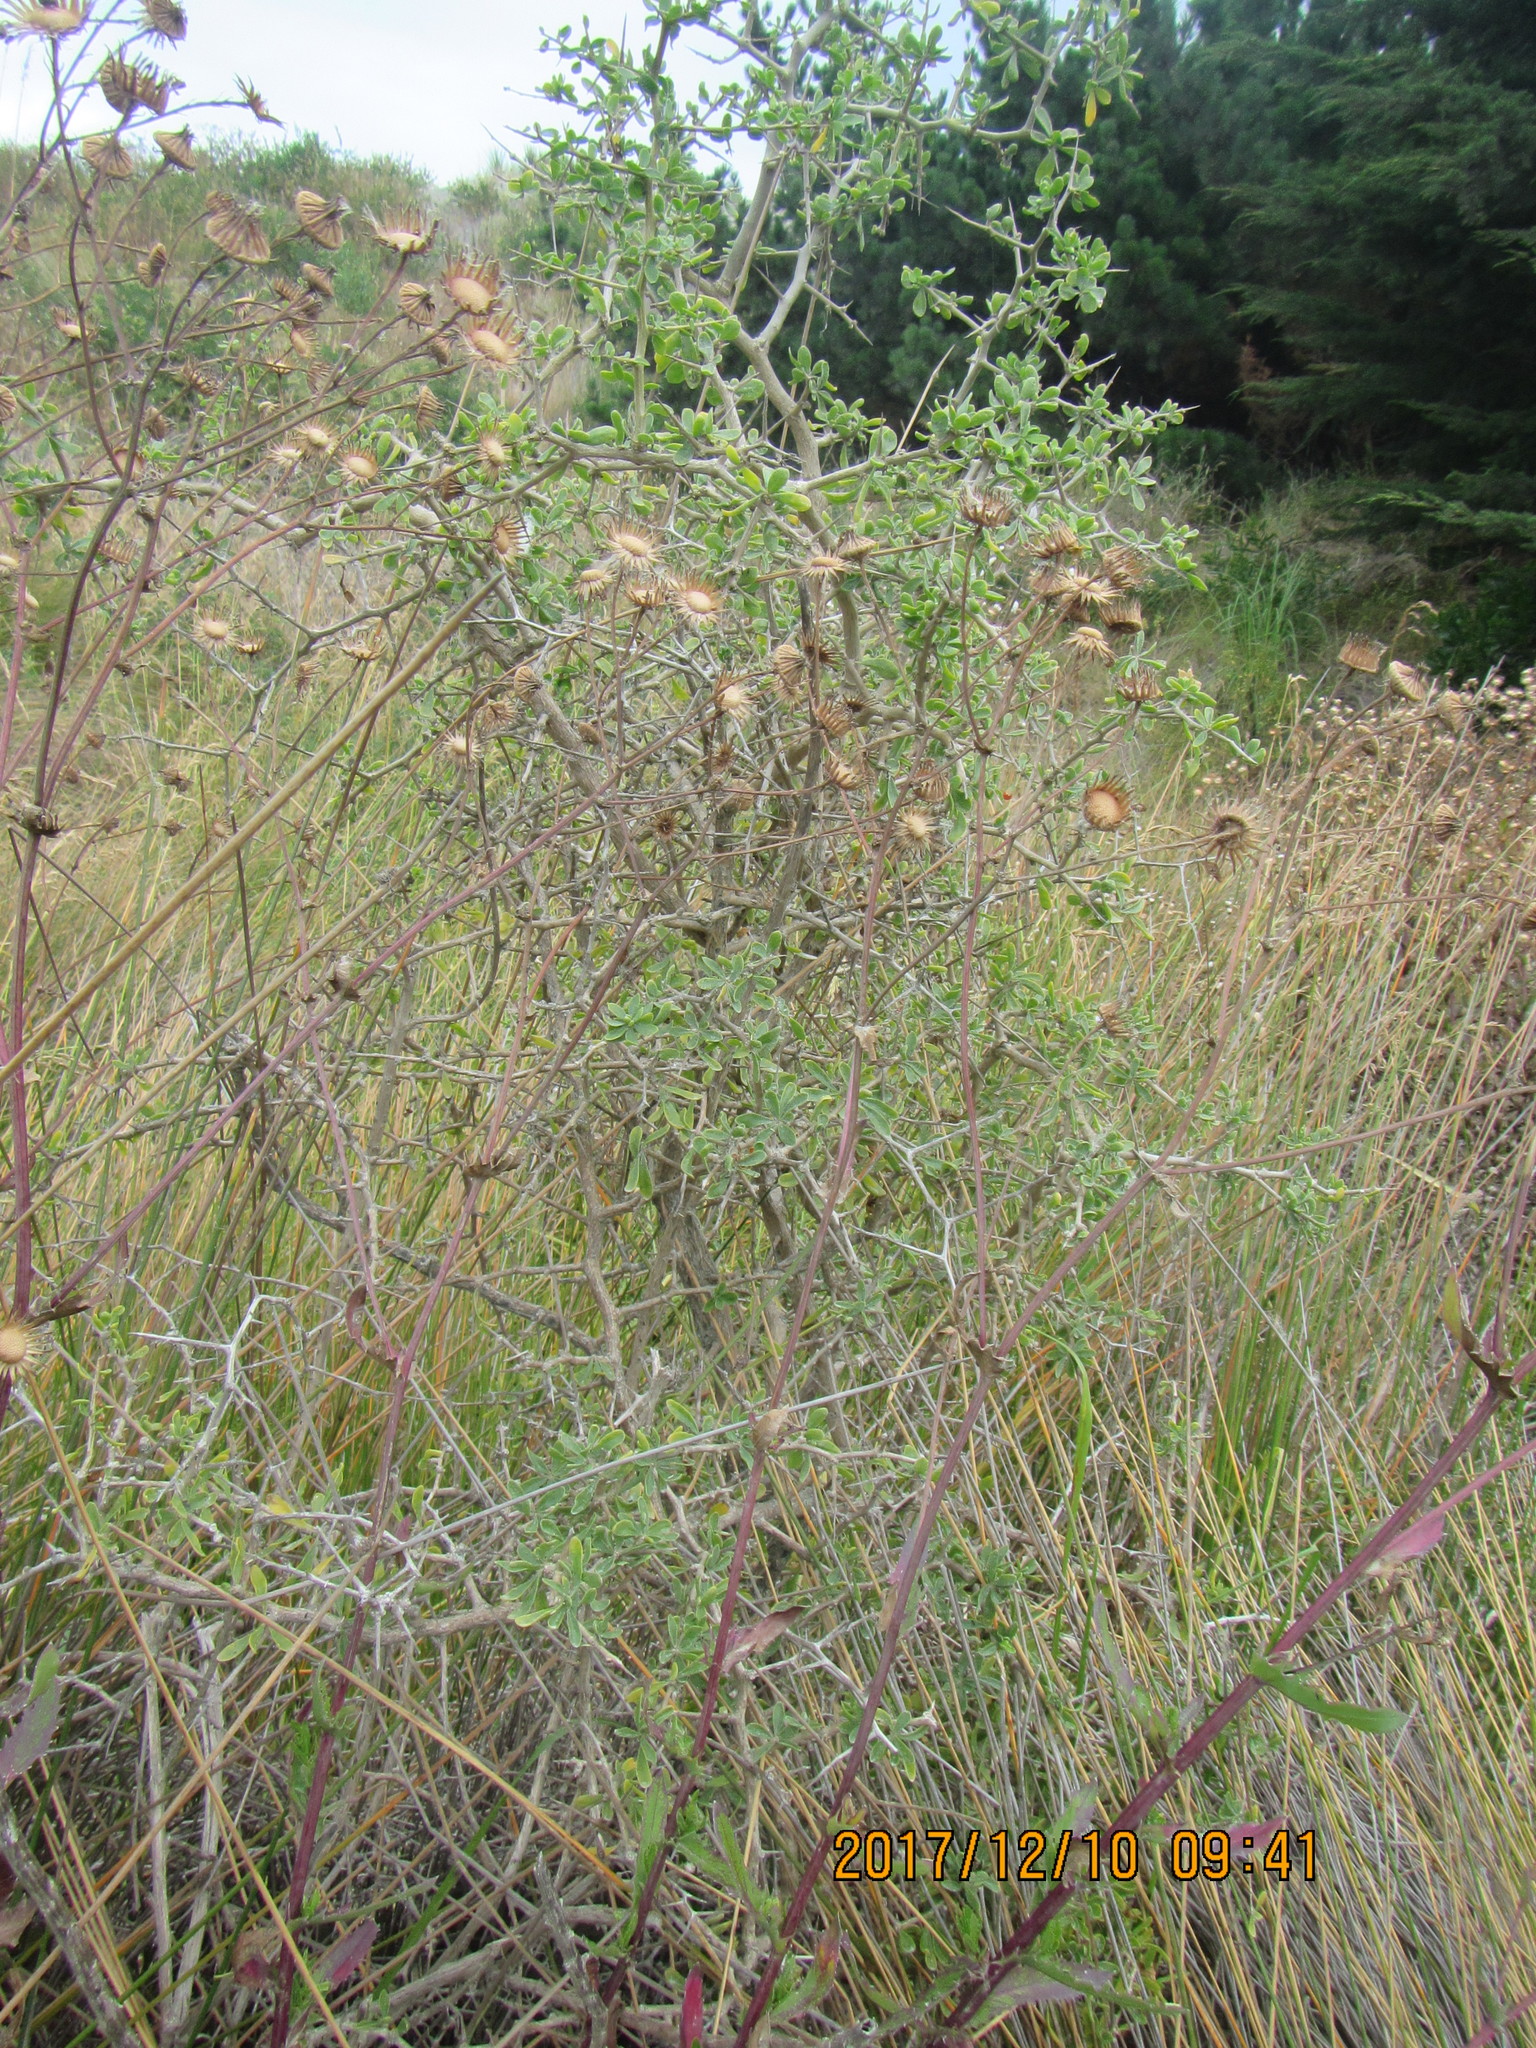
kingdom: Plantae
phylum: Tracheophyta
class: Magnoliopsida
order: Asterales
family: Asteraceae
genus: Senecio
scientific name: Senecio glastifolius
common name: Woad-leaved ragwort
